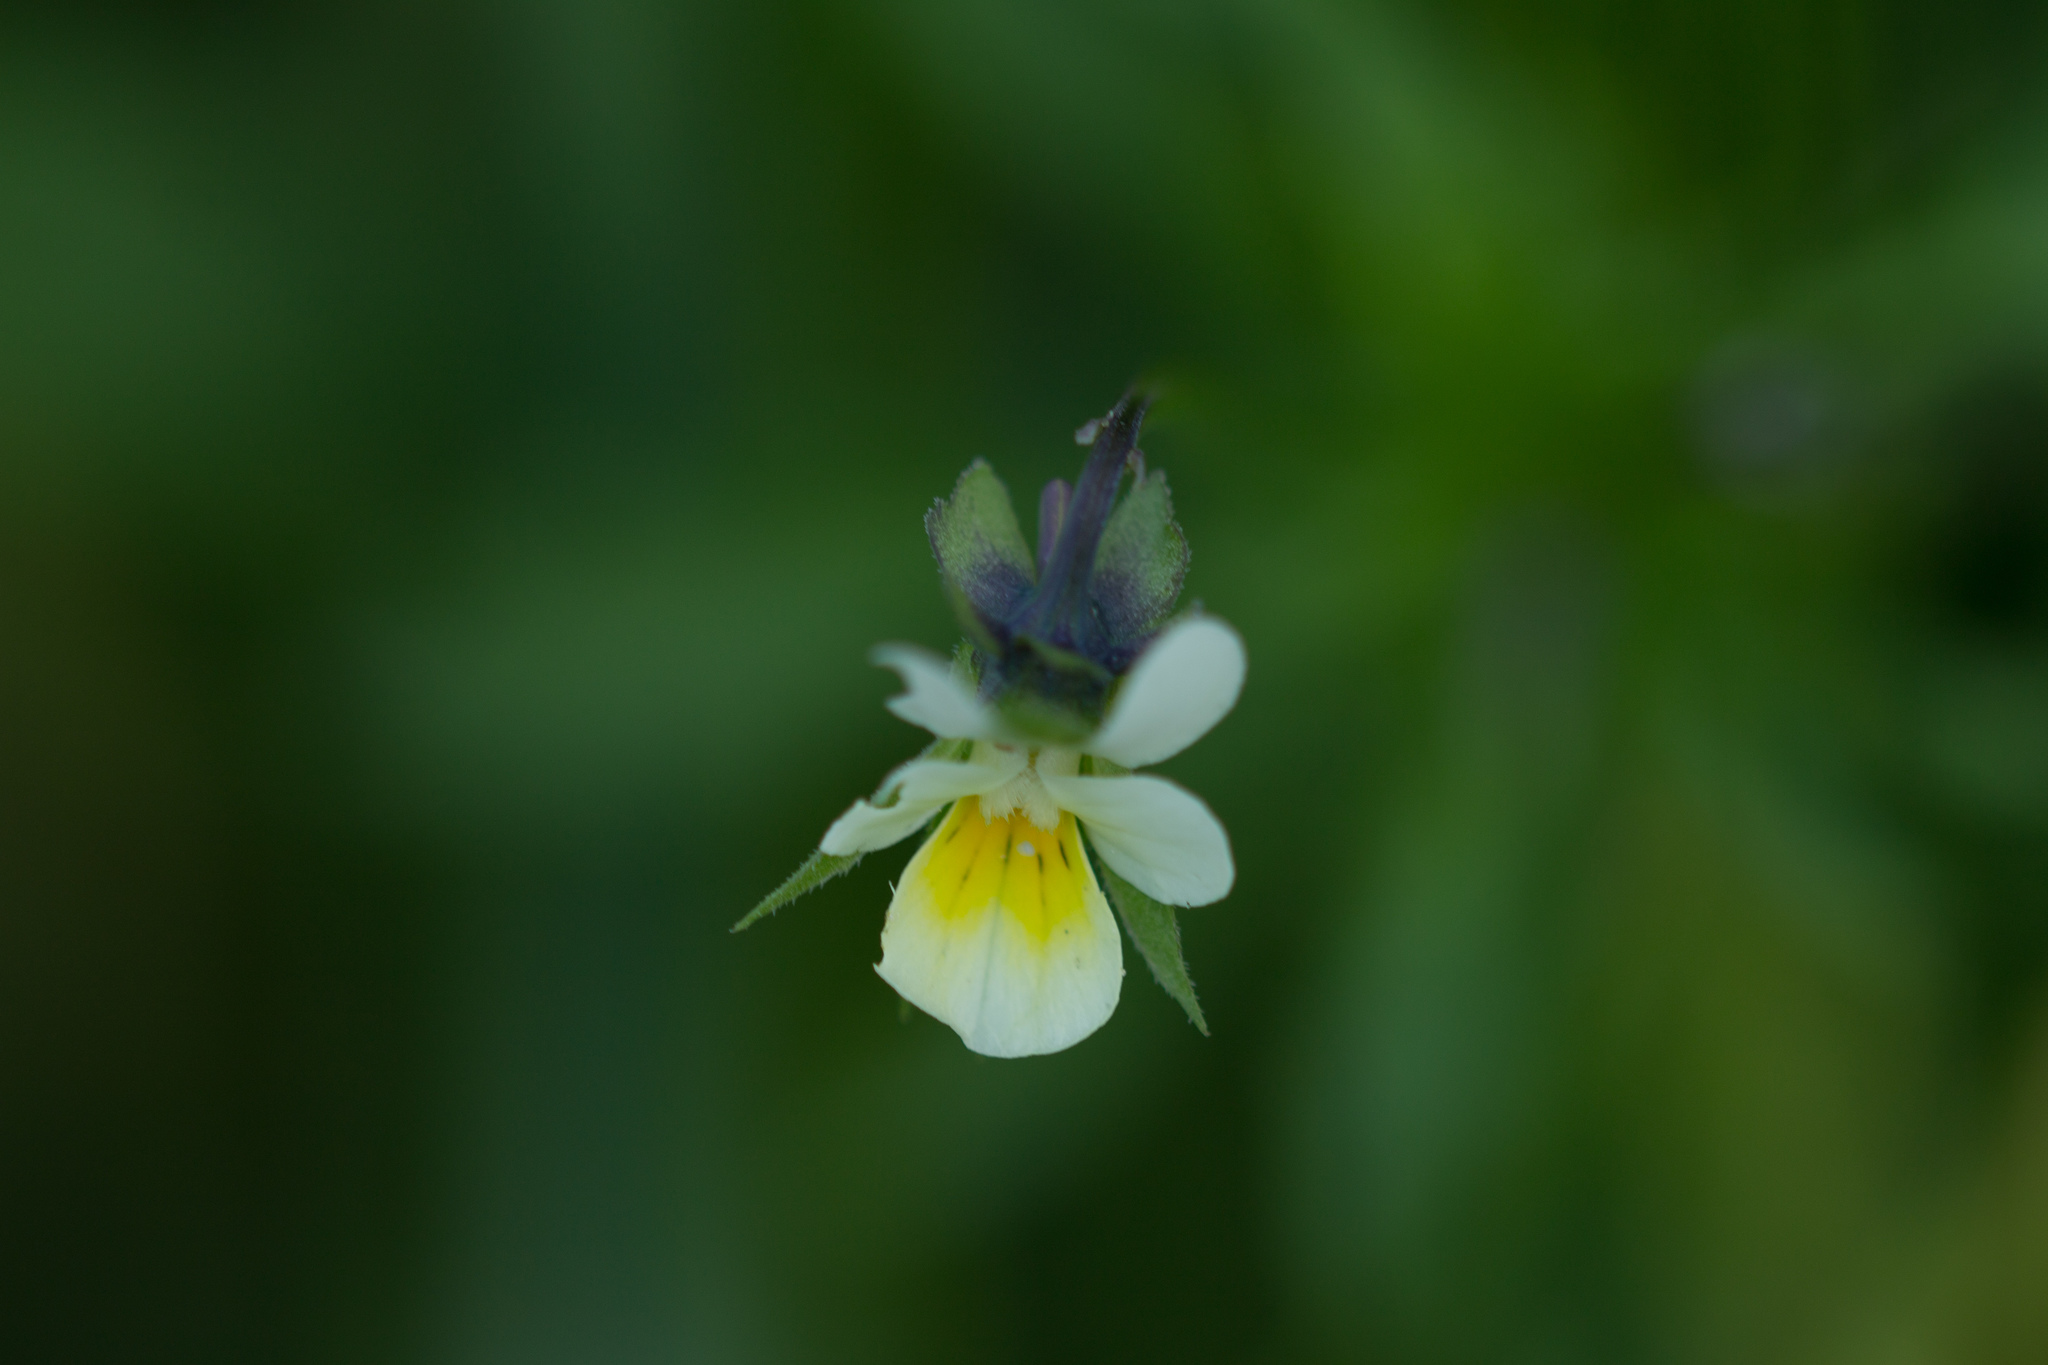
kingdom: Plantae
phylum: Tracheophyta
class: Magnoliopsida
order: Malpighiales
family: Violaceae
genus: Viola
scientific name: Viola arvensis
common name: Field pansy
